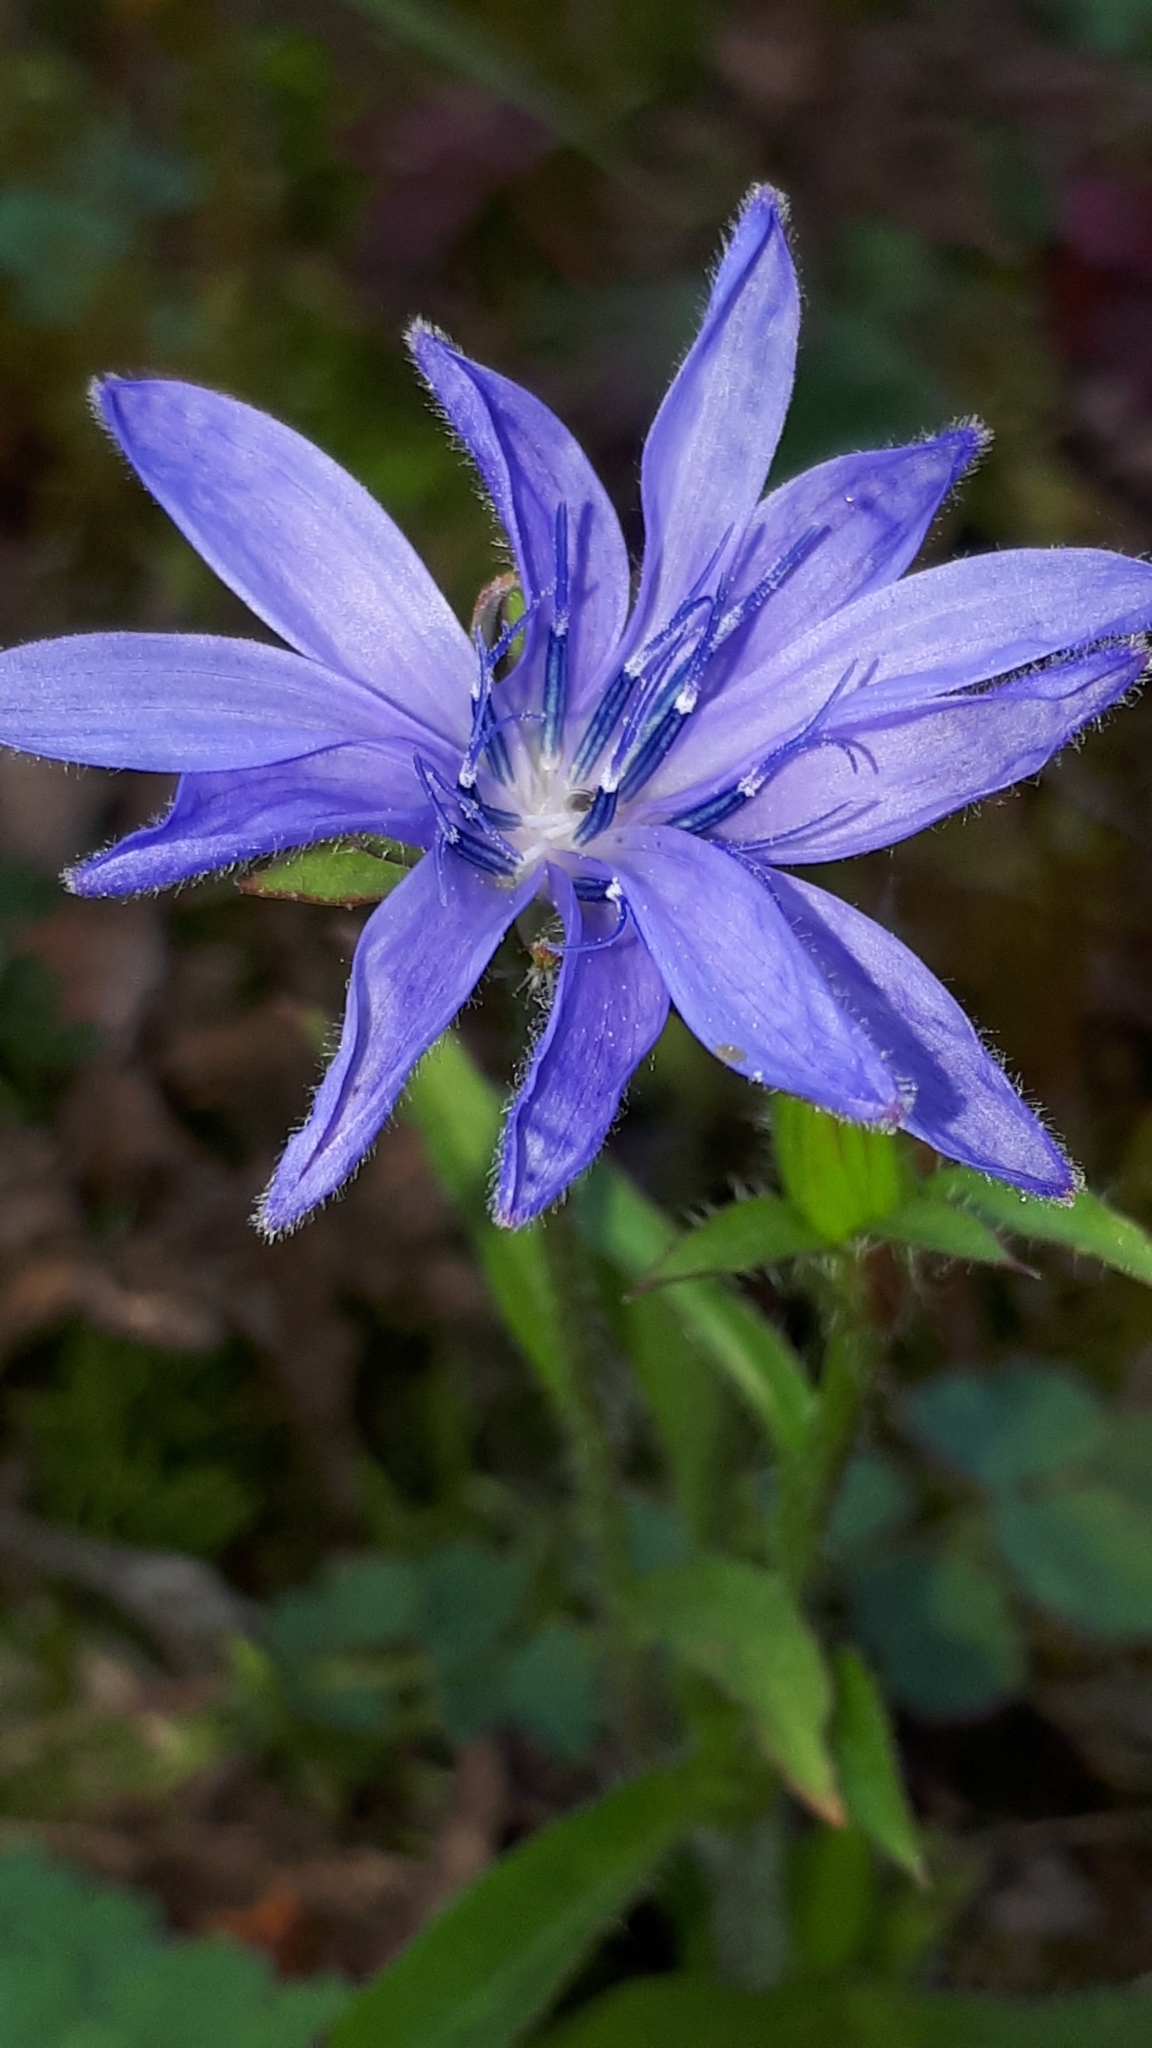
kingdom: Plantae
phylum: Tracheophyta
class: Magnoliopsida
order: Asterales
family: Asteraceae
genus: Cichorium
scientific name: Cichorium intybus
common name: Chicory
